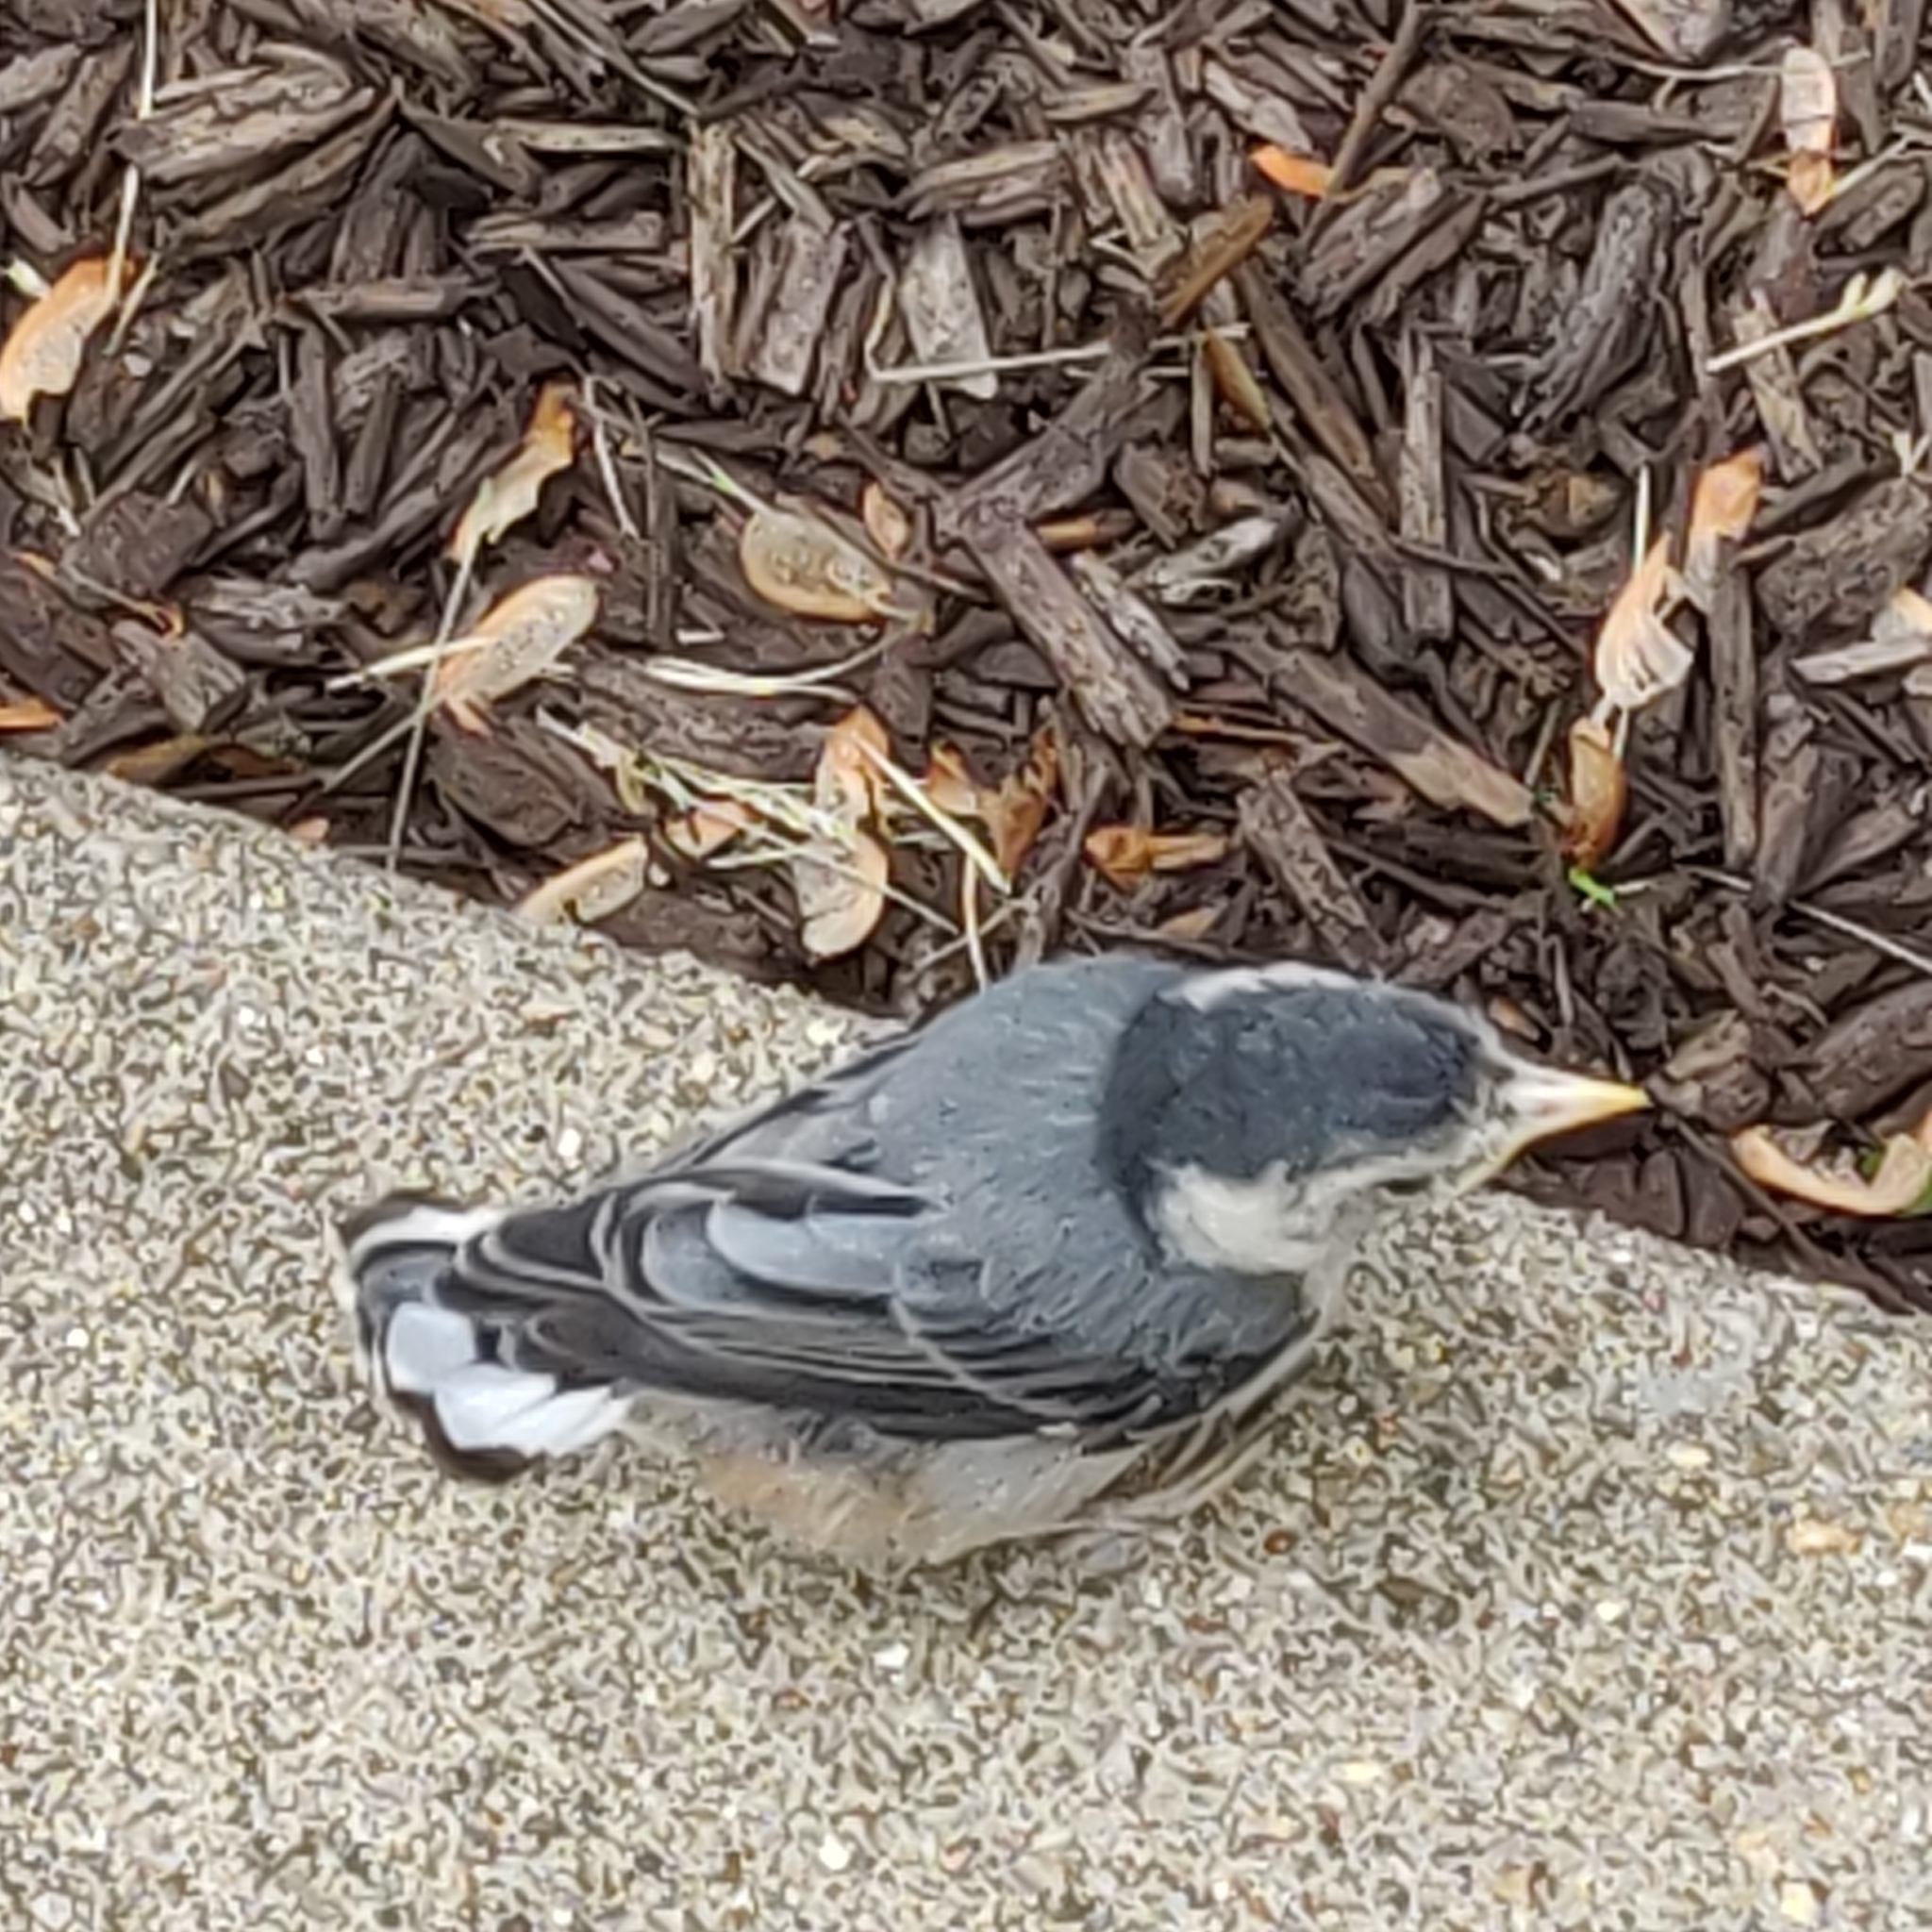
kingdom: Animalia
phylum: Chordata
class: Aves
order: Passeriformes
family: Sittidae
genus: Sitta
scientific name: Sitta carolinensis
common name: White-breasted nuthatch
